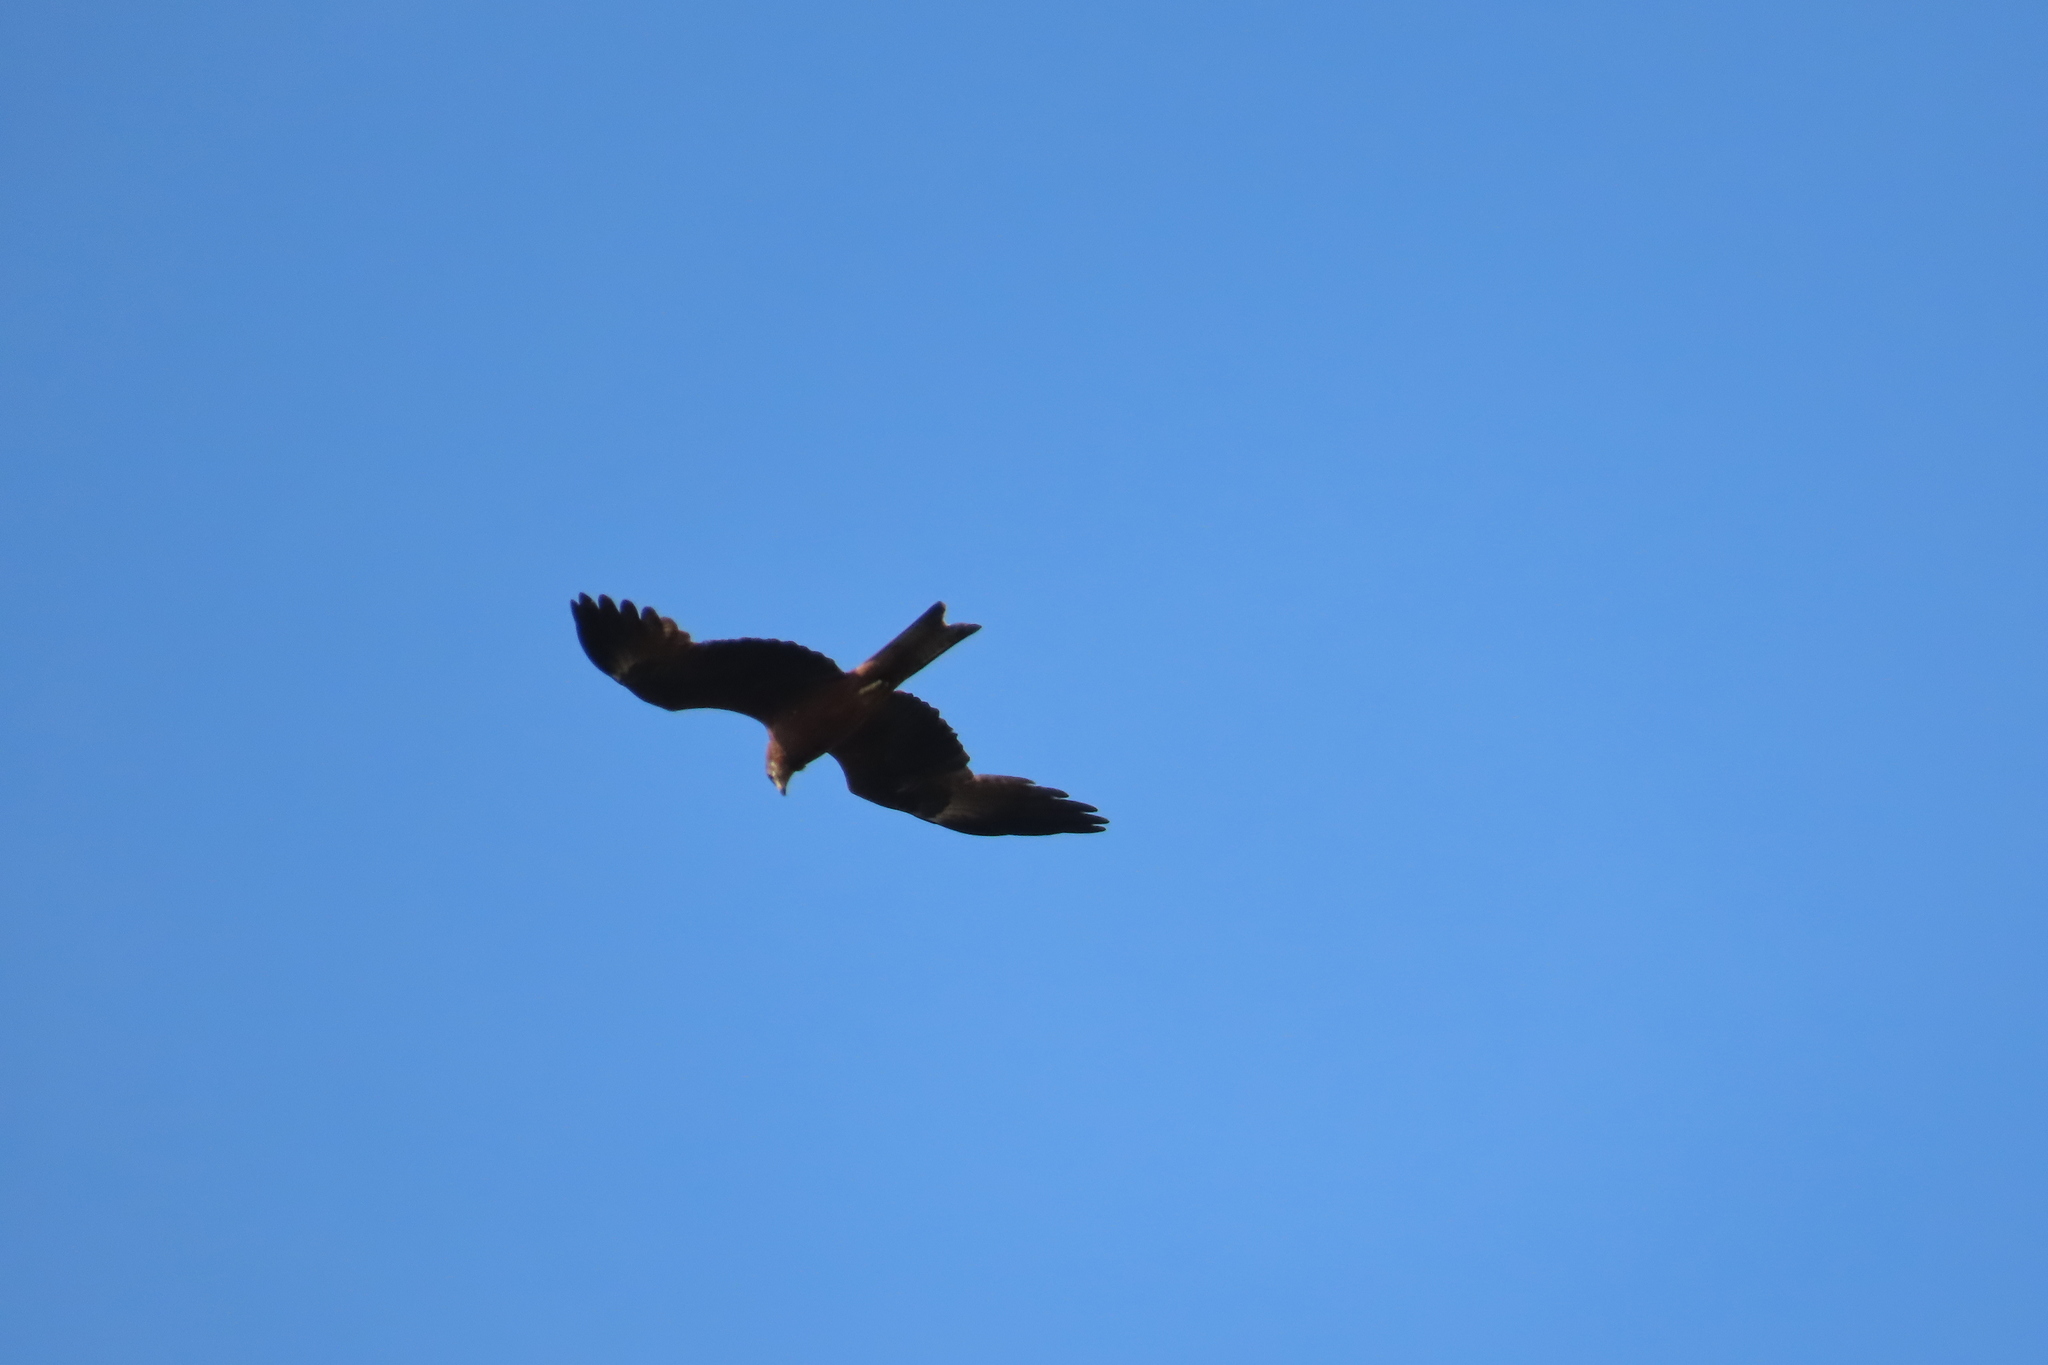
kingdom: Animalia
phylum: Chordata
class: Aves
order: Accipitriformes
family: Accipitridae
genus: Milvus
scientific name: Milvus migrans
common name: Black kite
